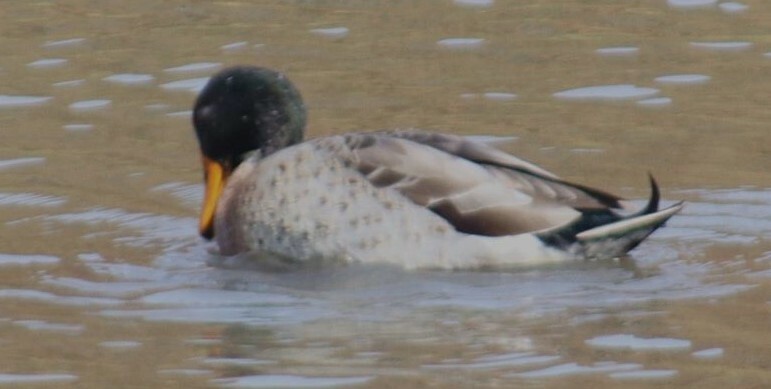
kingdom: Animalia
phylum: Chordata
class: Aves
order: Anseriformes
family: Anatidae
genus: Anas
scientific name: Anas
